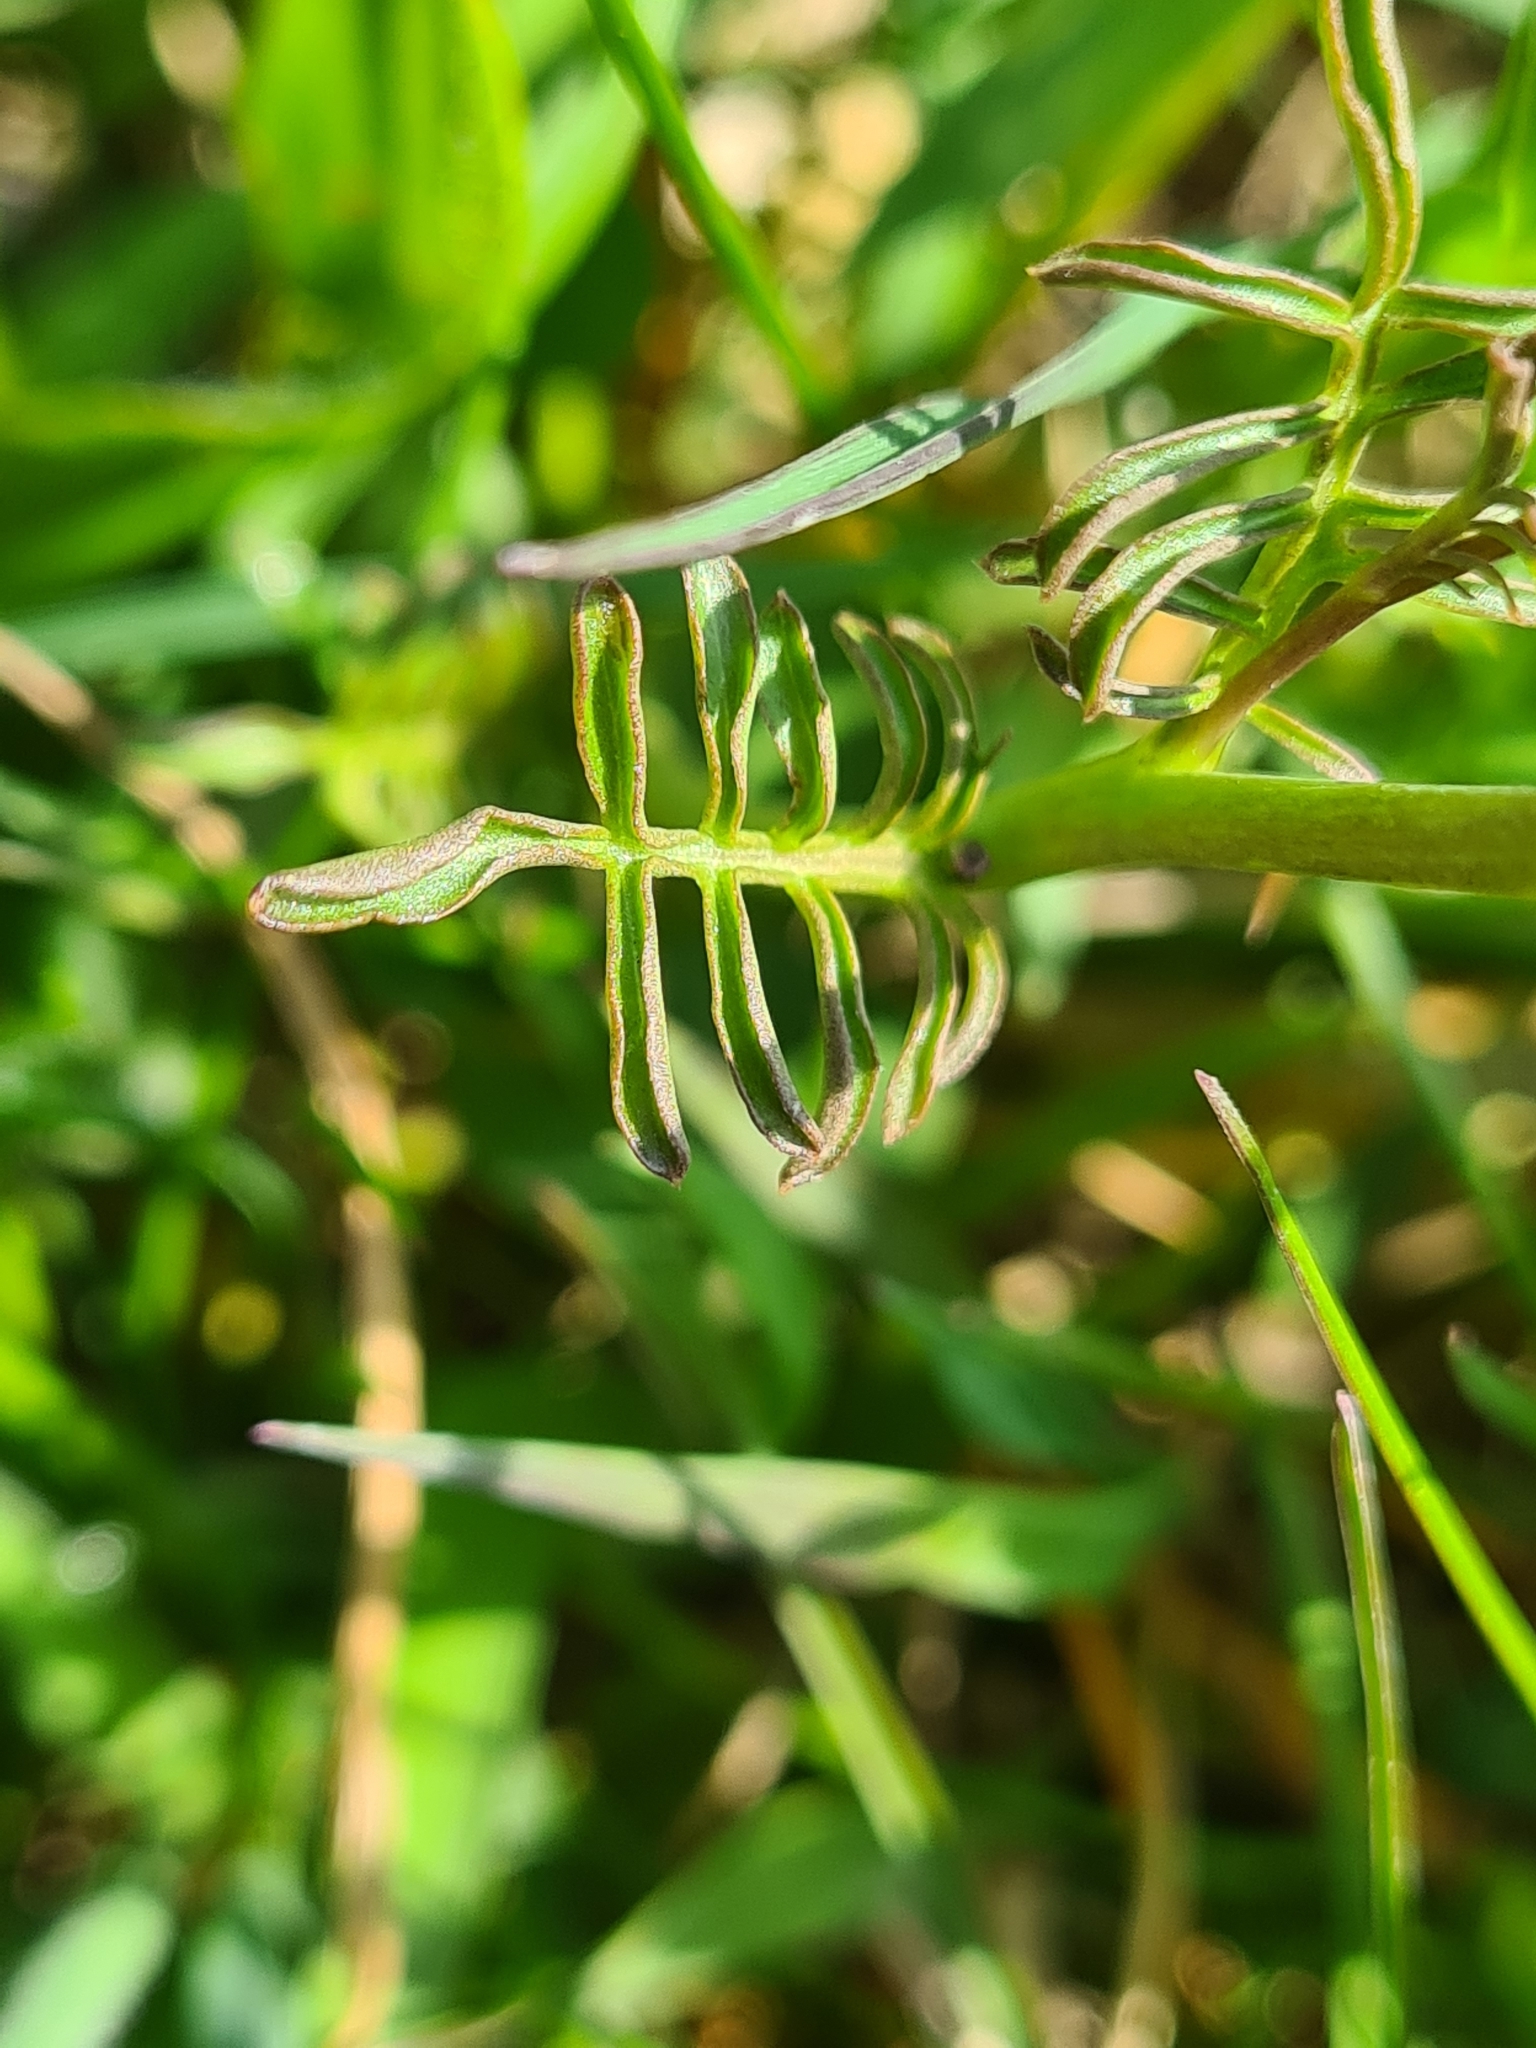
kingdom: Plantae
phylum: Tracheophyta
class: Magnoliopsida
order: Brassicales
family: Brassicaceae
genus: Cardamine
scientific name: Cardamine pratensis
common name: Cuckoo flower
